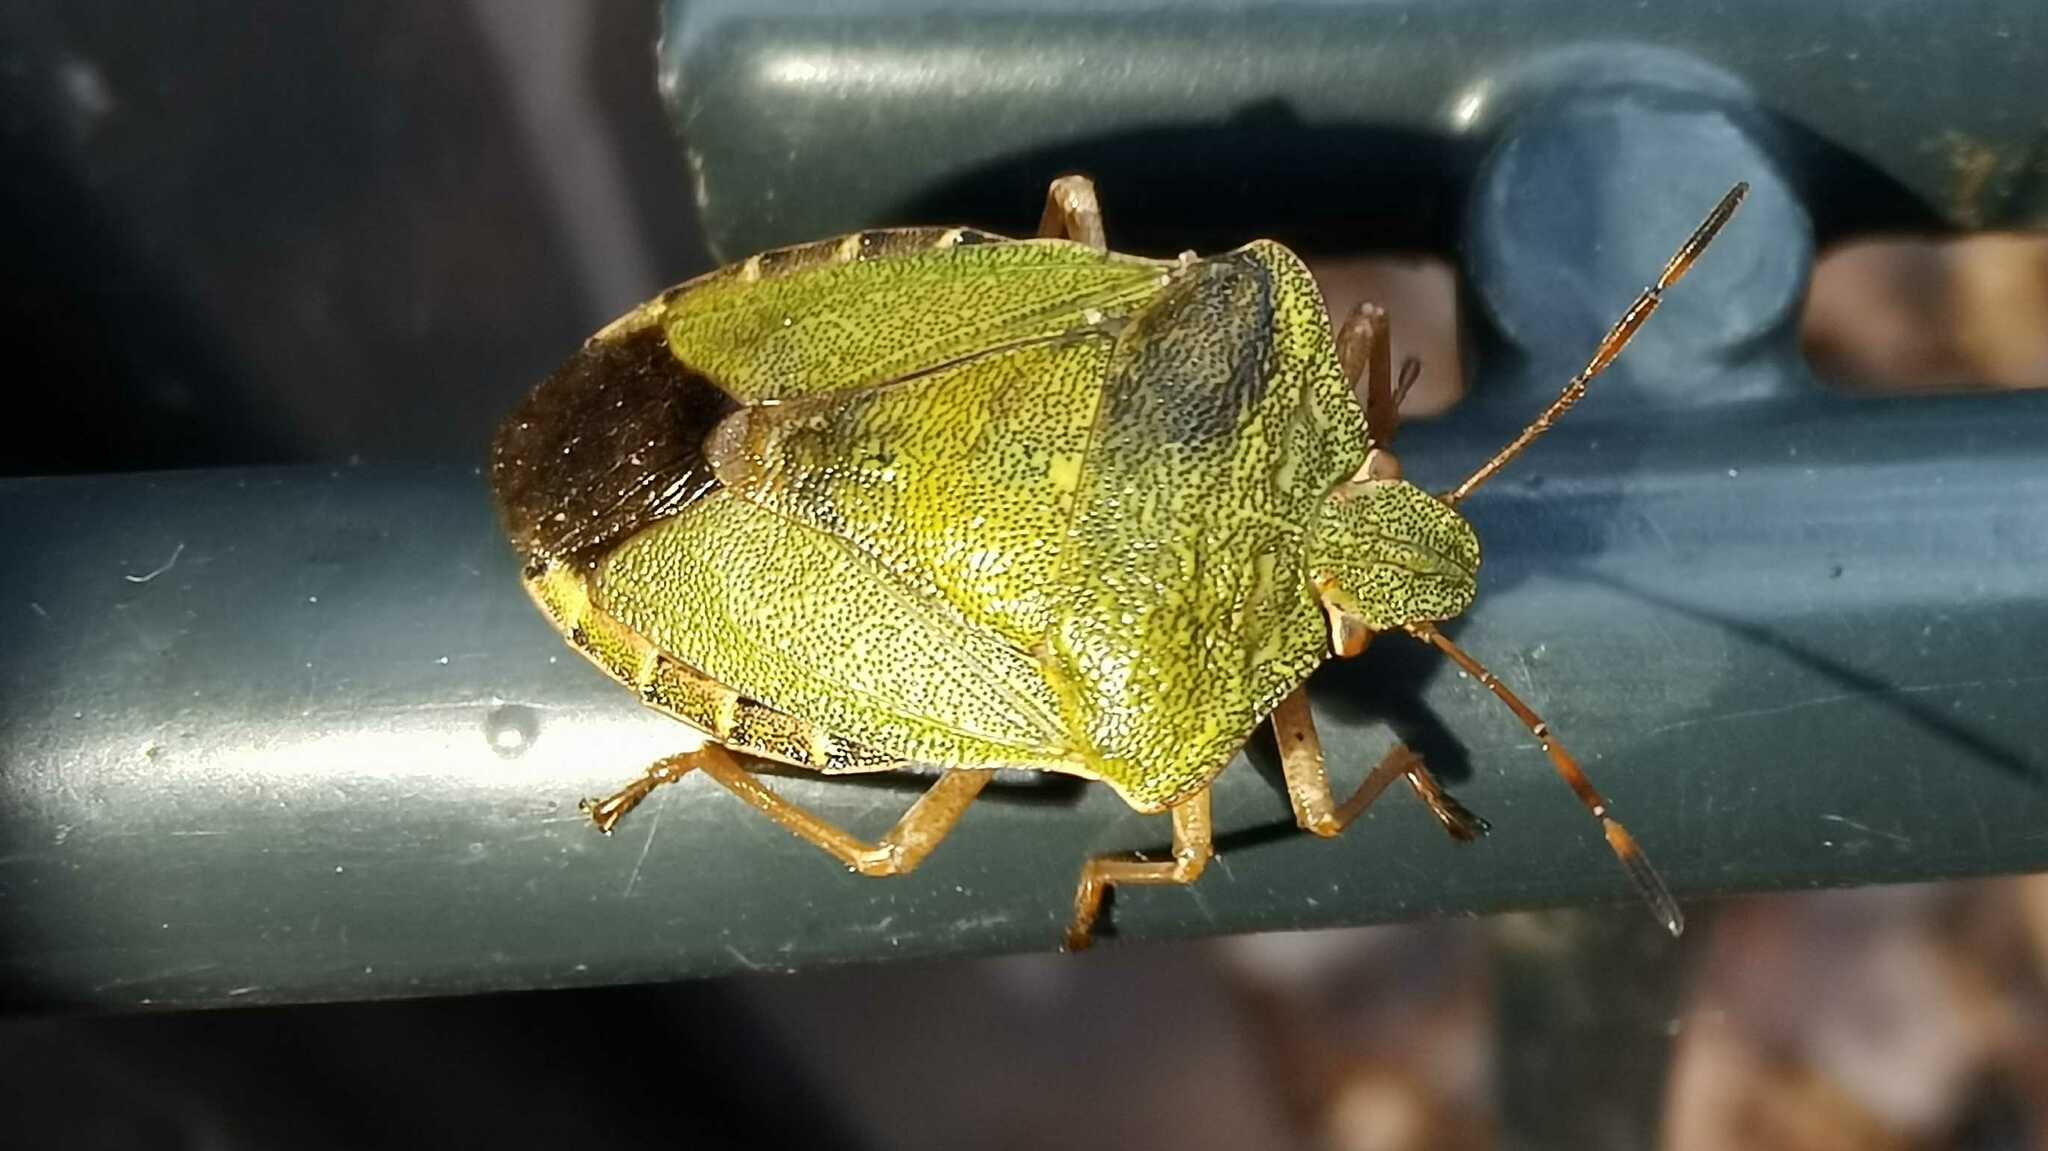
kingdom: Animalia
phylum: Arthropoda
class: Insecta
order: Hemiptera
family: Pentatomidae
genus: Palomena
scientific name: Palomena prasina
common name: Green shieldbug
